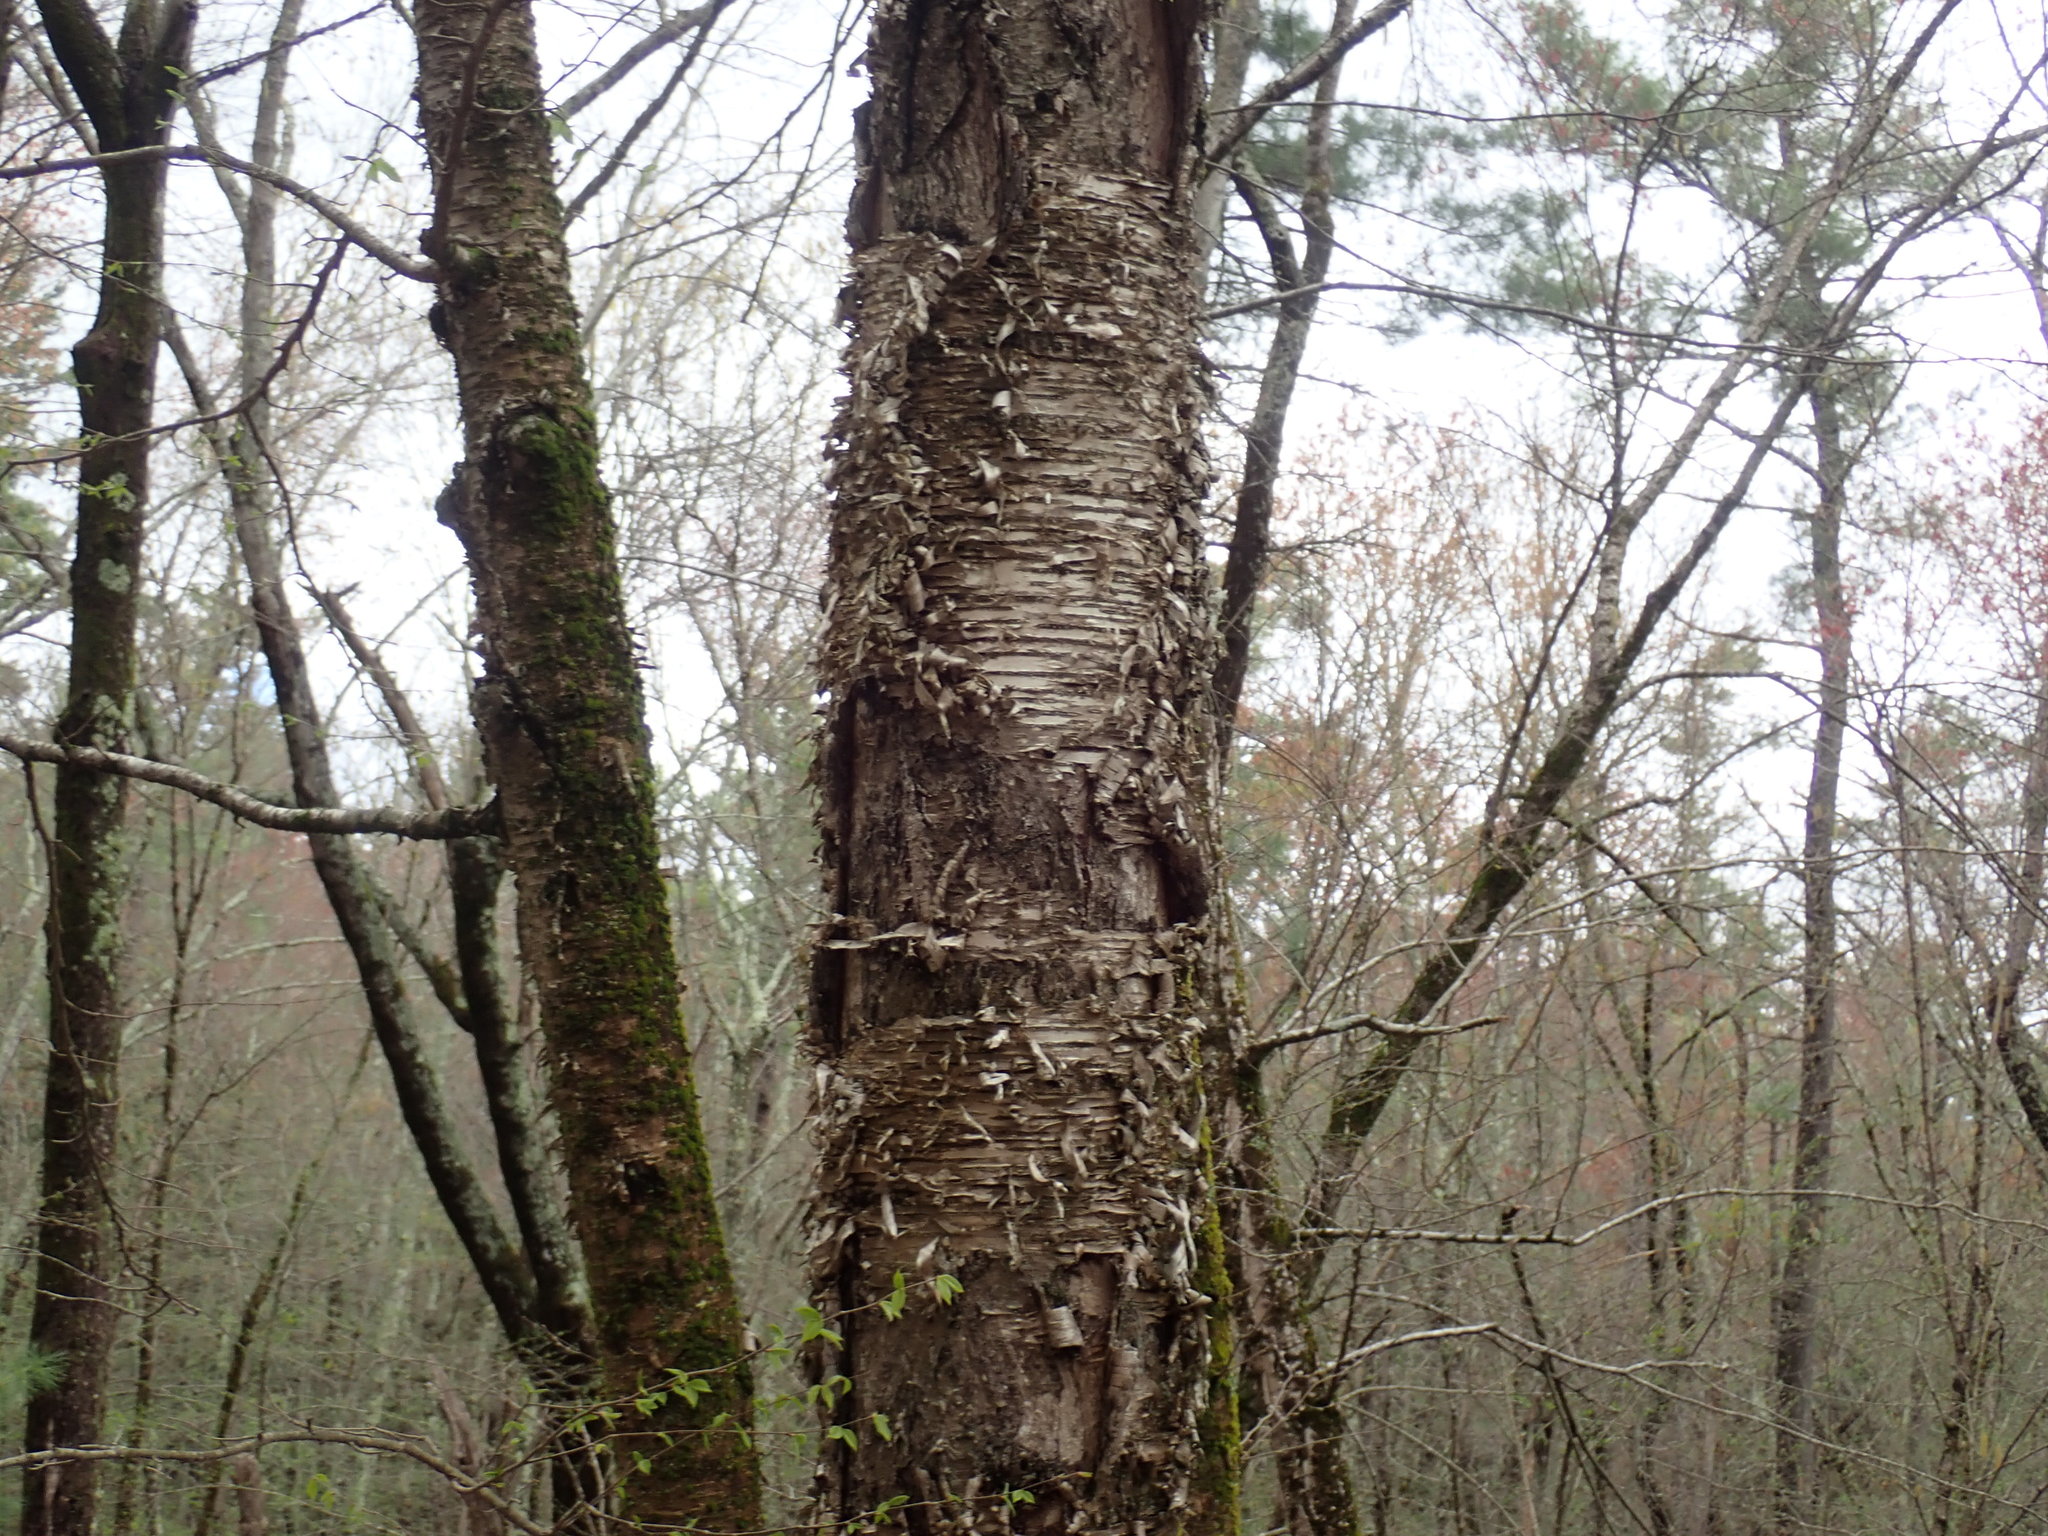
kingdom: Plantae
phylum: Tracheophyta
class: Magnoliopsida
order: Fagales
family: Betulaceae
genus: Betula
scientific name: Betula alleghaniensis
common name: Yellow birch
